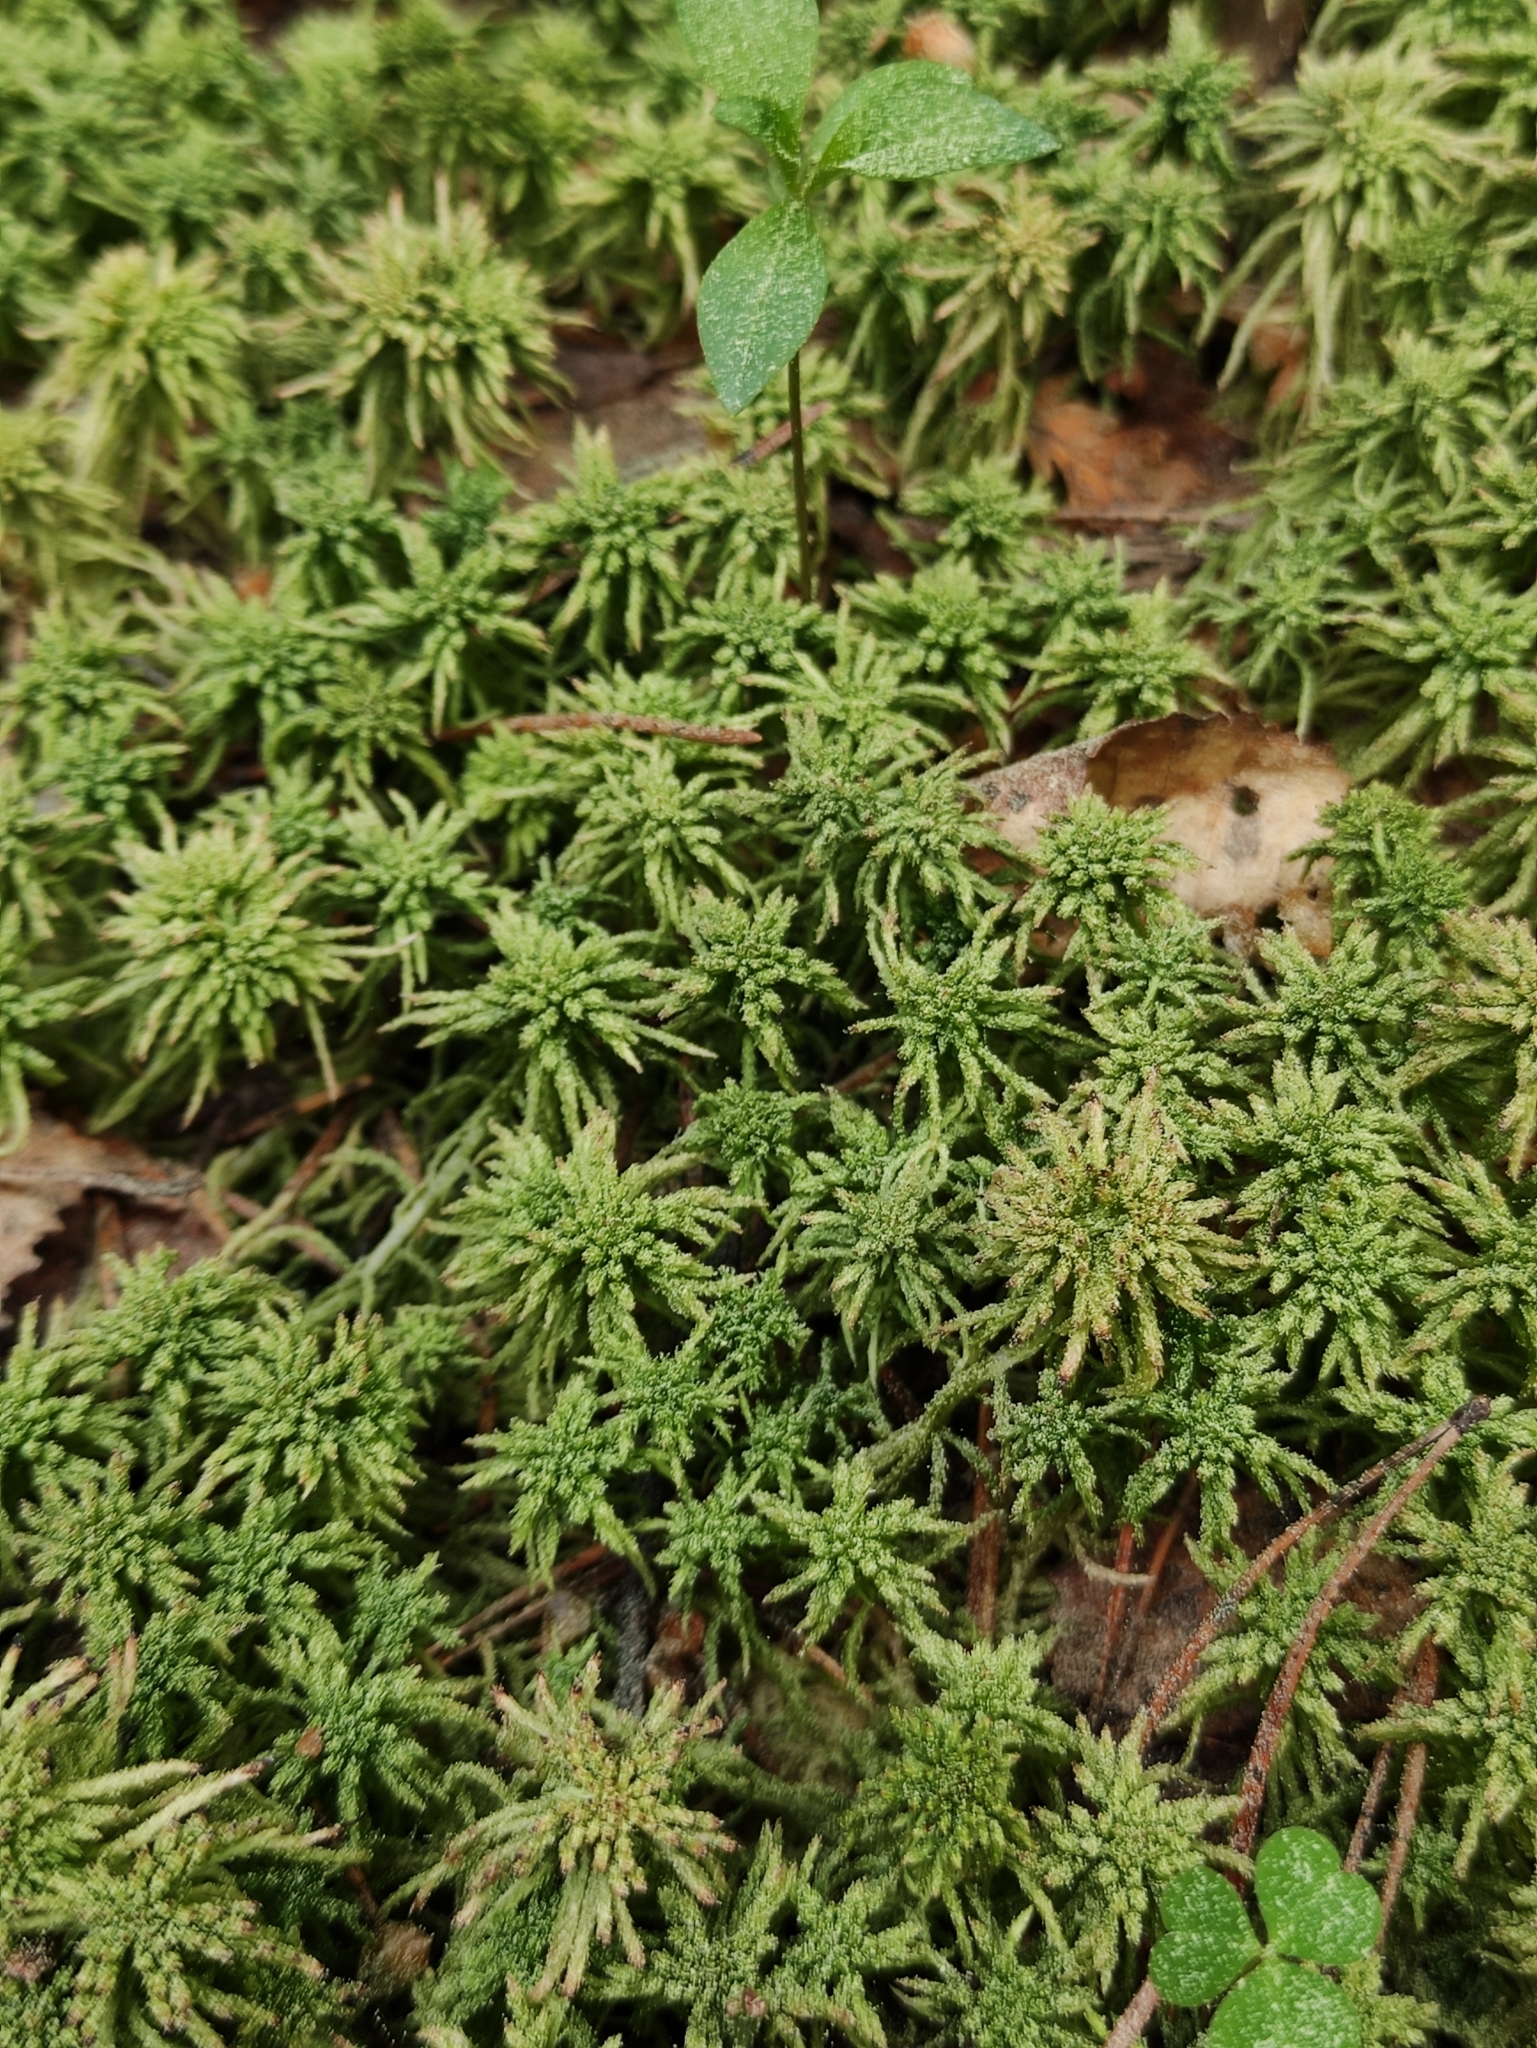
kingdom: Plantae
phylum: Bryophyta
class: Sphagnopsida
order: Sphagnales
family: Sphagnaceae
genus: Sphagnum
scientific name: Sphagnum girgensohnii
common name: Girgensohn's peat moss
